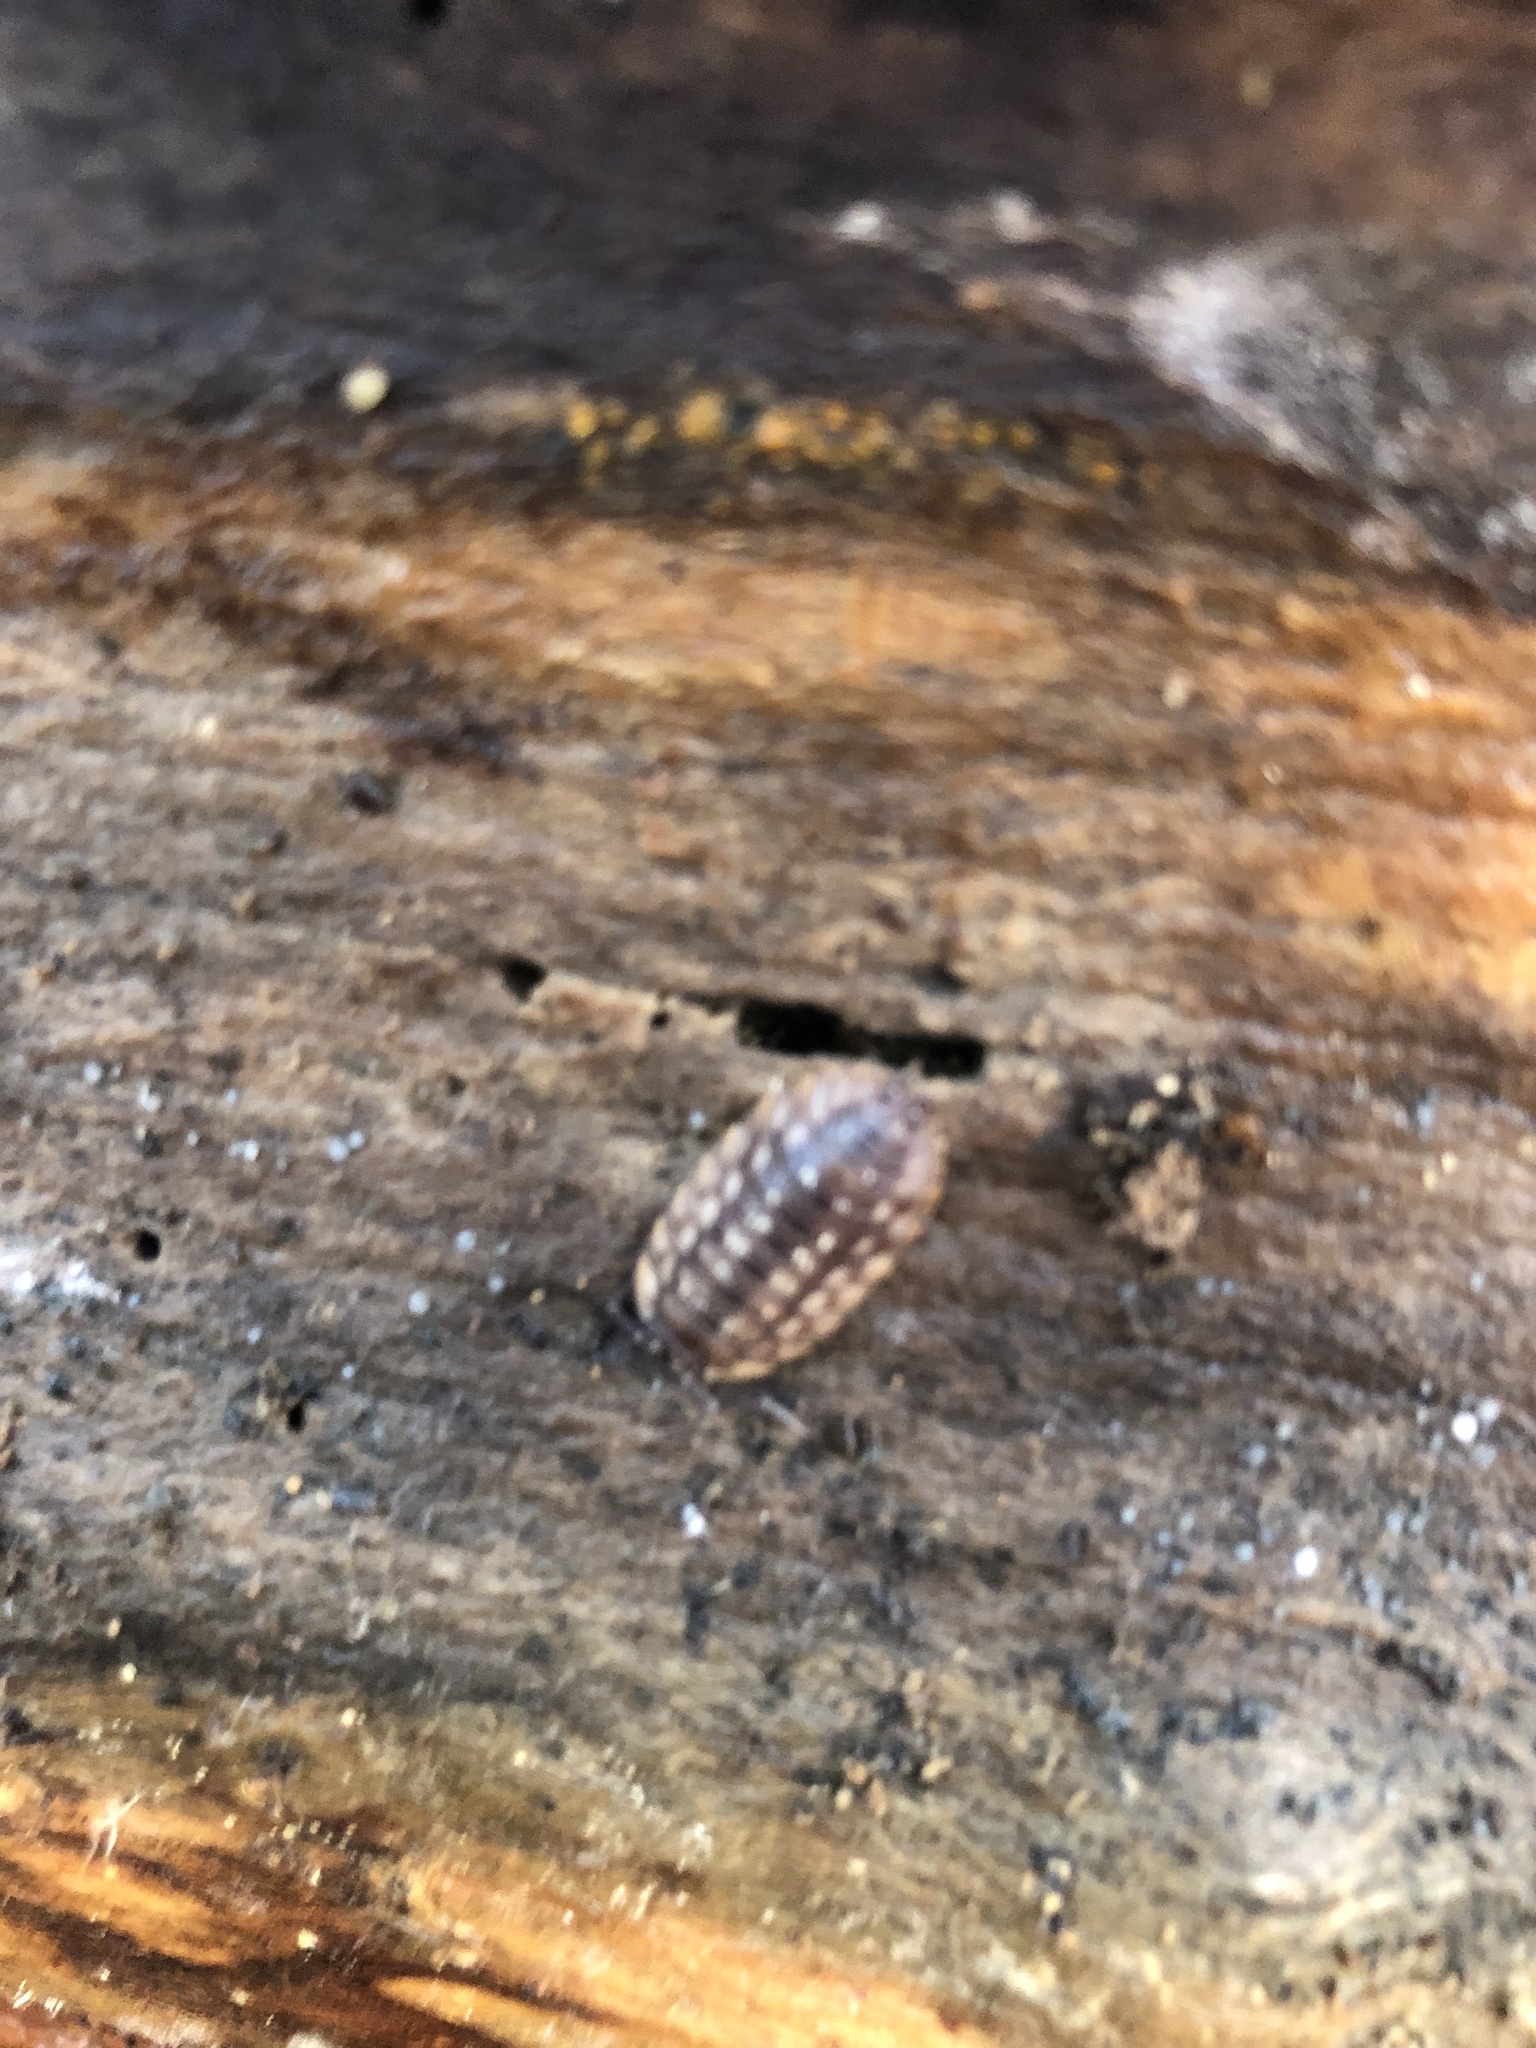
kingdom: Animalia
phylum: Arthropoda
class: Malacostraca
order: Isopoda
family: Oniscidae
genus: Oniscus
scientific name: Oniscus asellus
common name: Common shiny woodlouse
